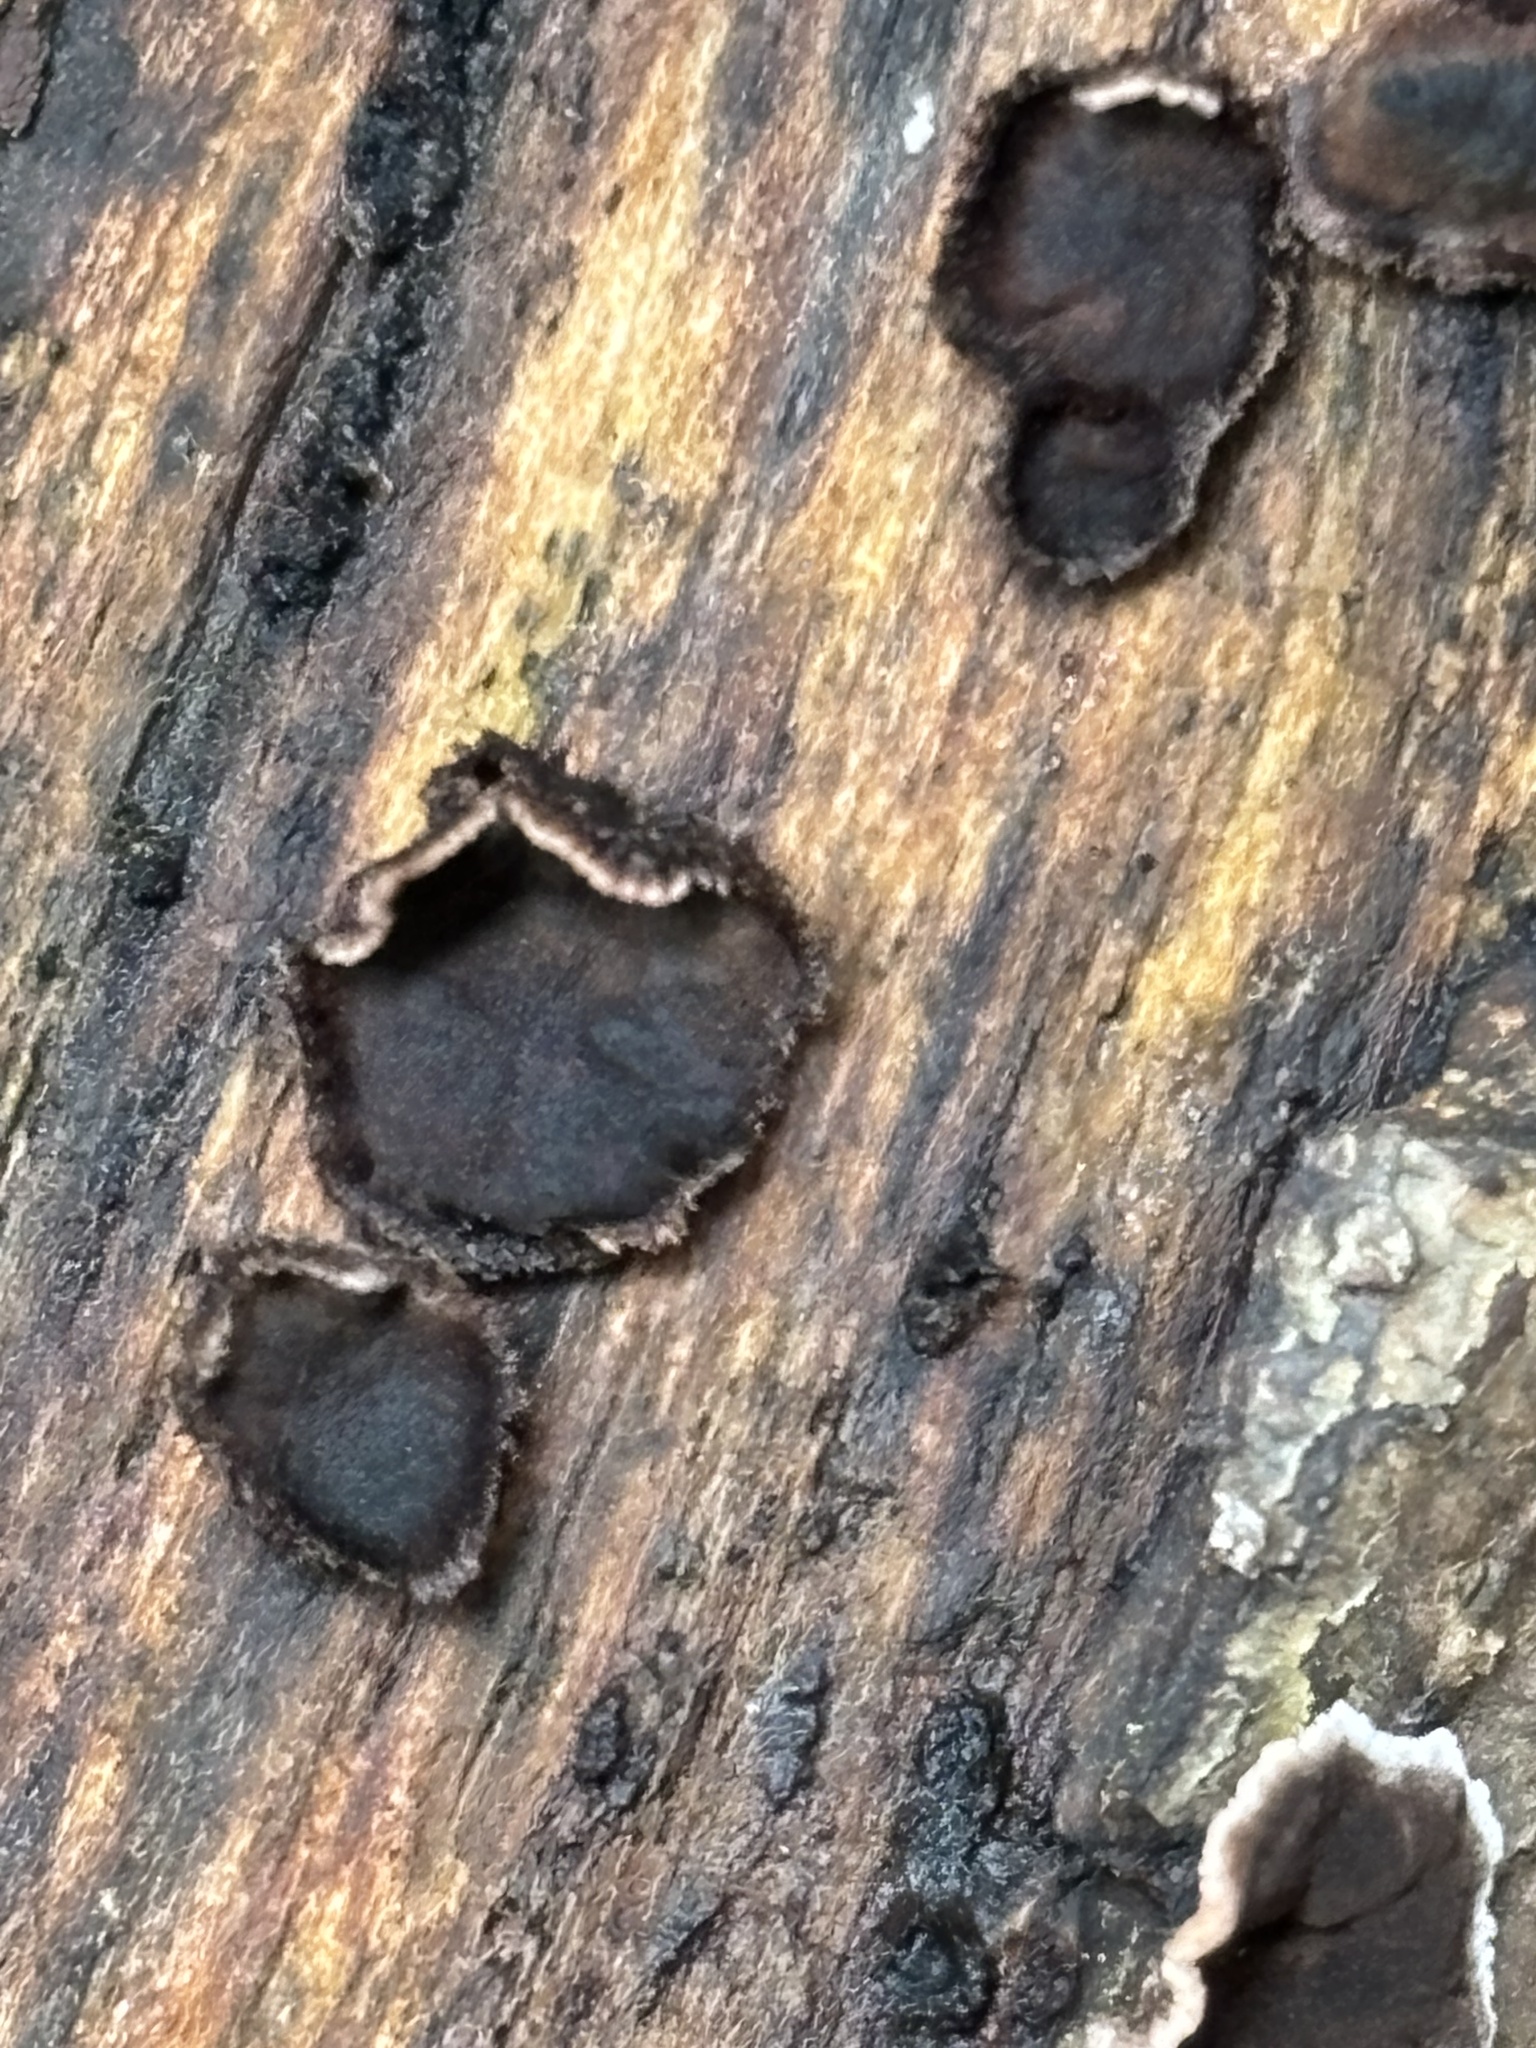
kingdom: Fungi
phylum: Basidiomycota
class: Agaricomycetes
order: Russulales
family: Peniophoraceae
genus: Peniophora
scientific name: Peniophora albobadia
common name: Giraffe spots
